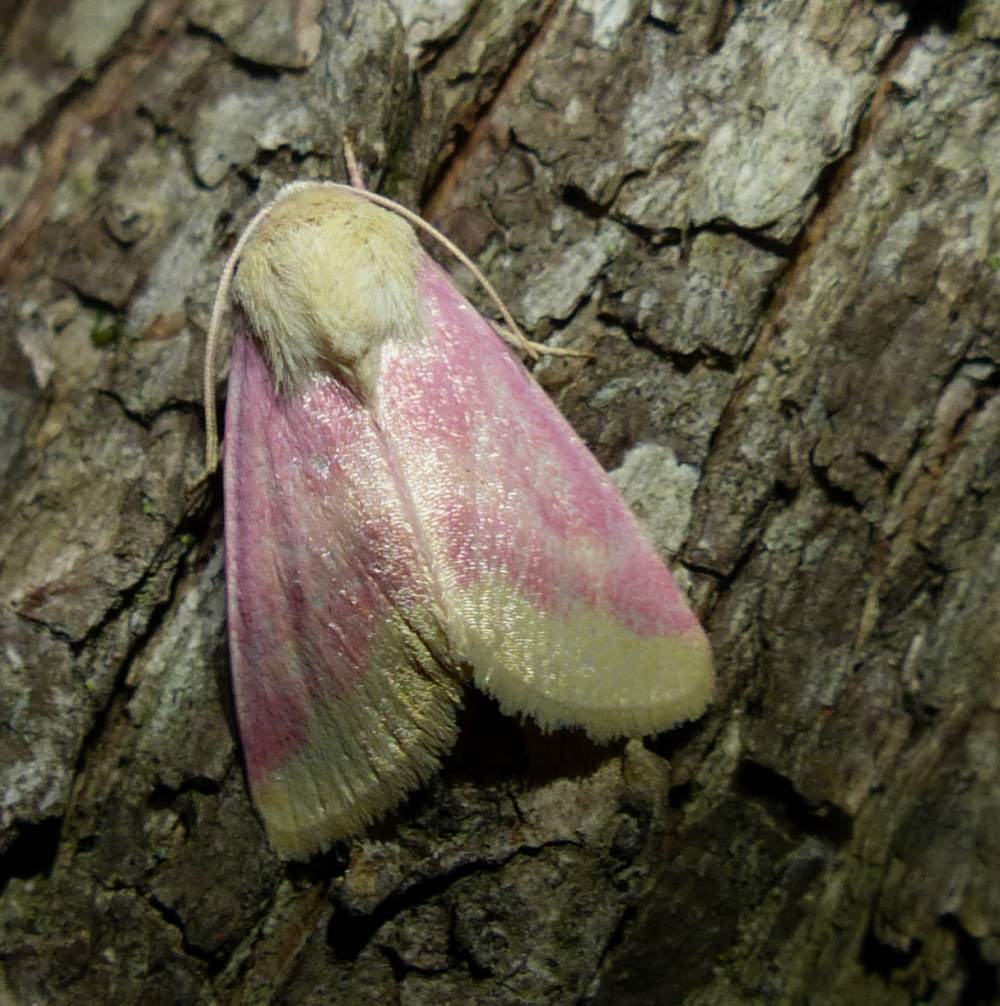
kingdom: Animalia
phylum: Arthropoda
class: Insecta
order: Lepidoptera
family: Noctuidae
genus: Schinia
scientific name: Schinia florida
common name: Primrose moth
